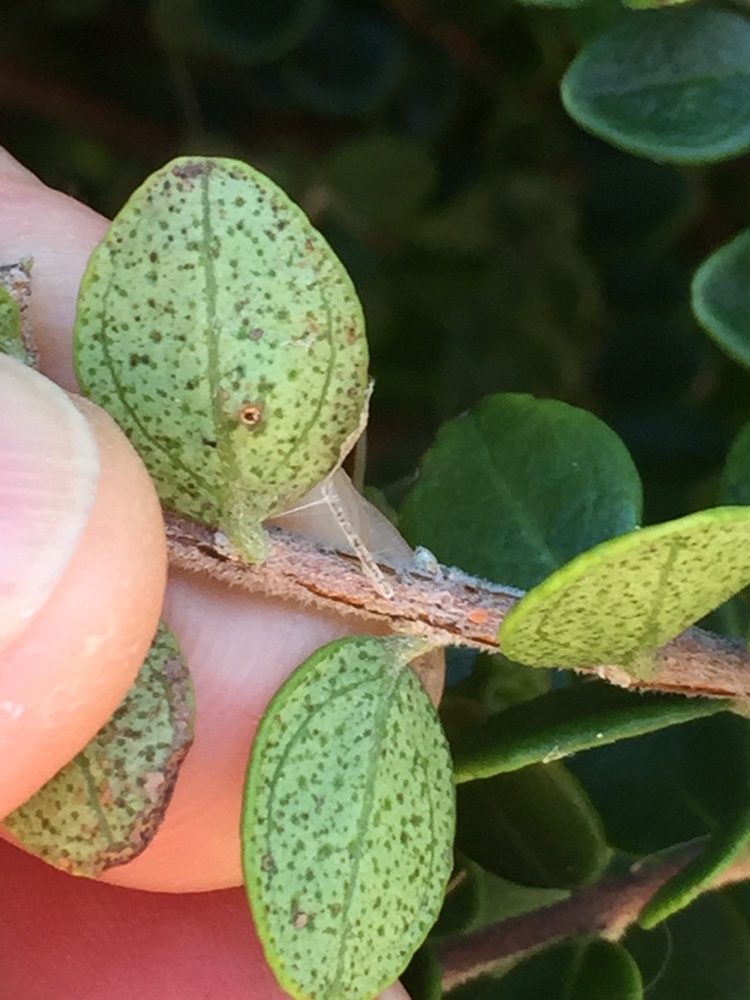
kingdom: Plantae
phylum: Tracheophyta
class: Magnoliopsida
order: Myrtales
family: Myrtaceae
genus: Metrosideros
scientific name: Metrosideros perforata
